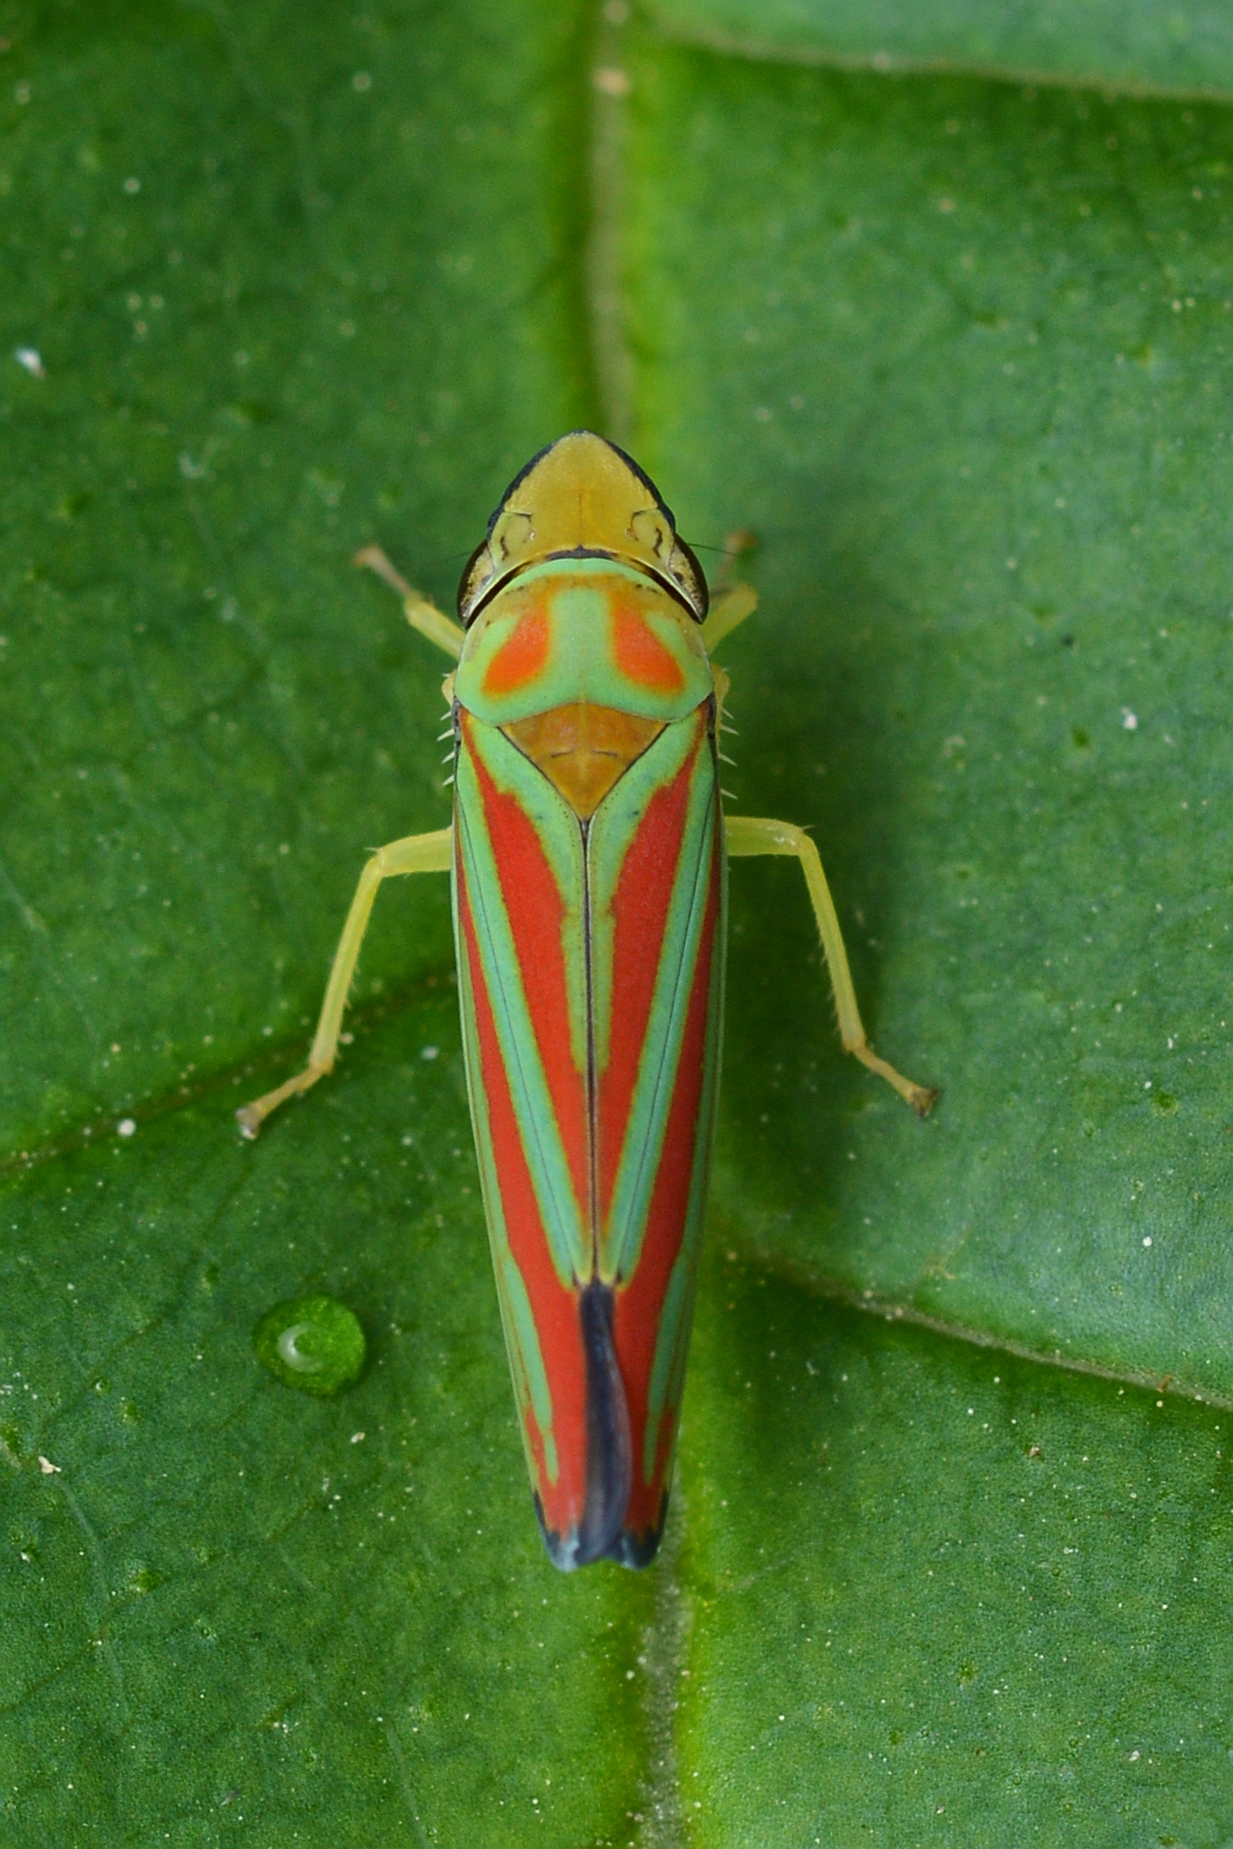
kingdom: Animalia
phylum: Arthropoda
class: Insecta
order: Hemiptera
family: Cicadellidae
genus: Graphocephala
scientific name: Graphocephala coccinea
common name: Candy-striped leafhopper
